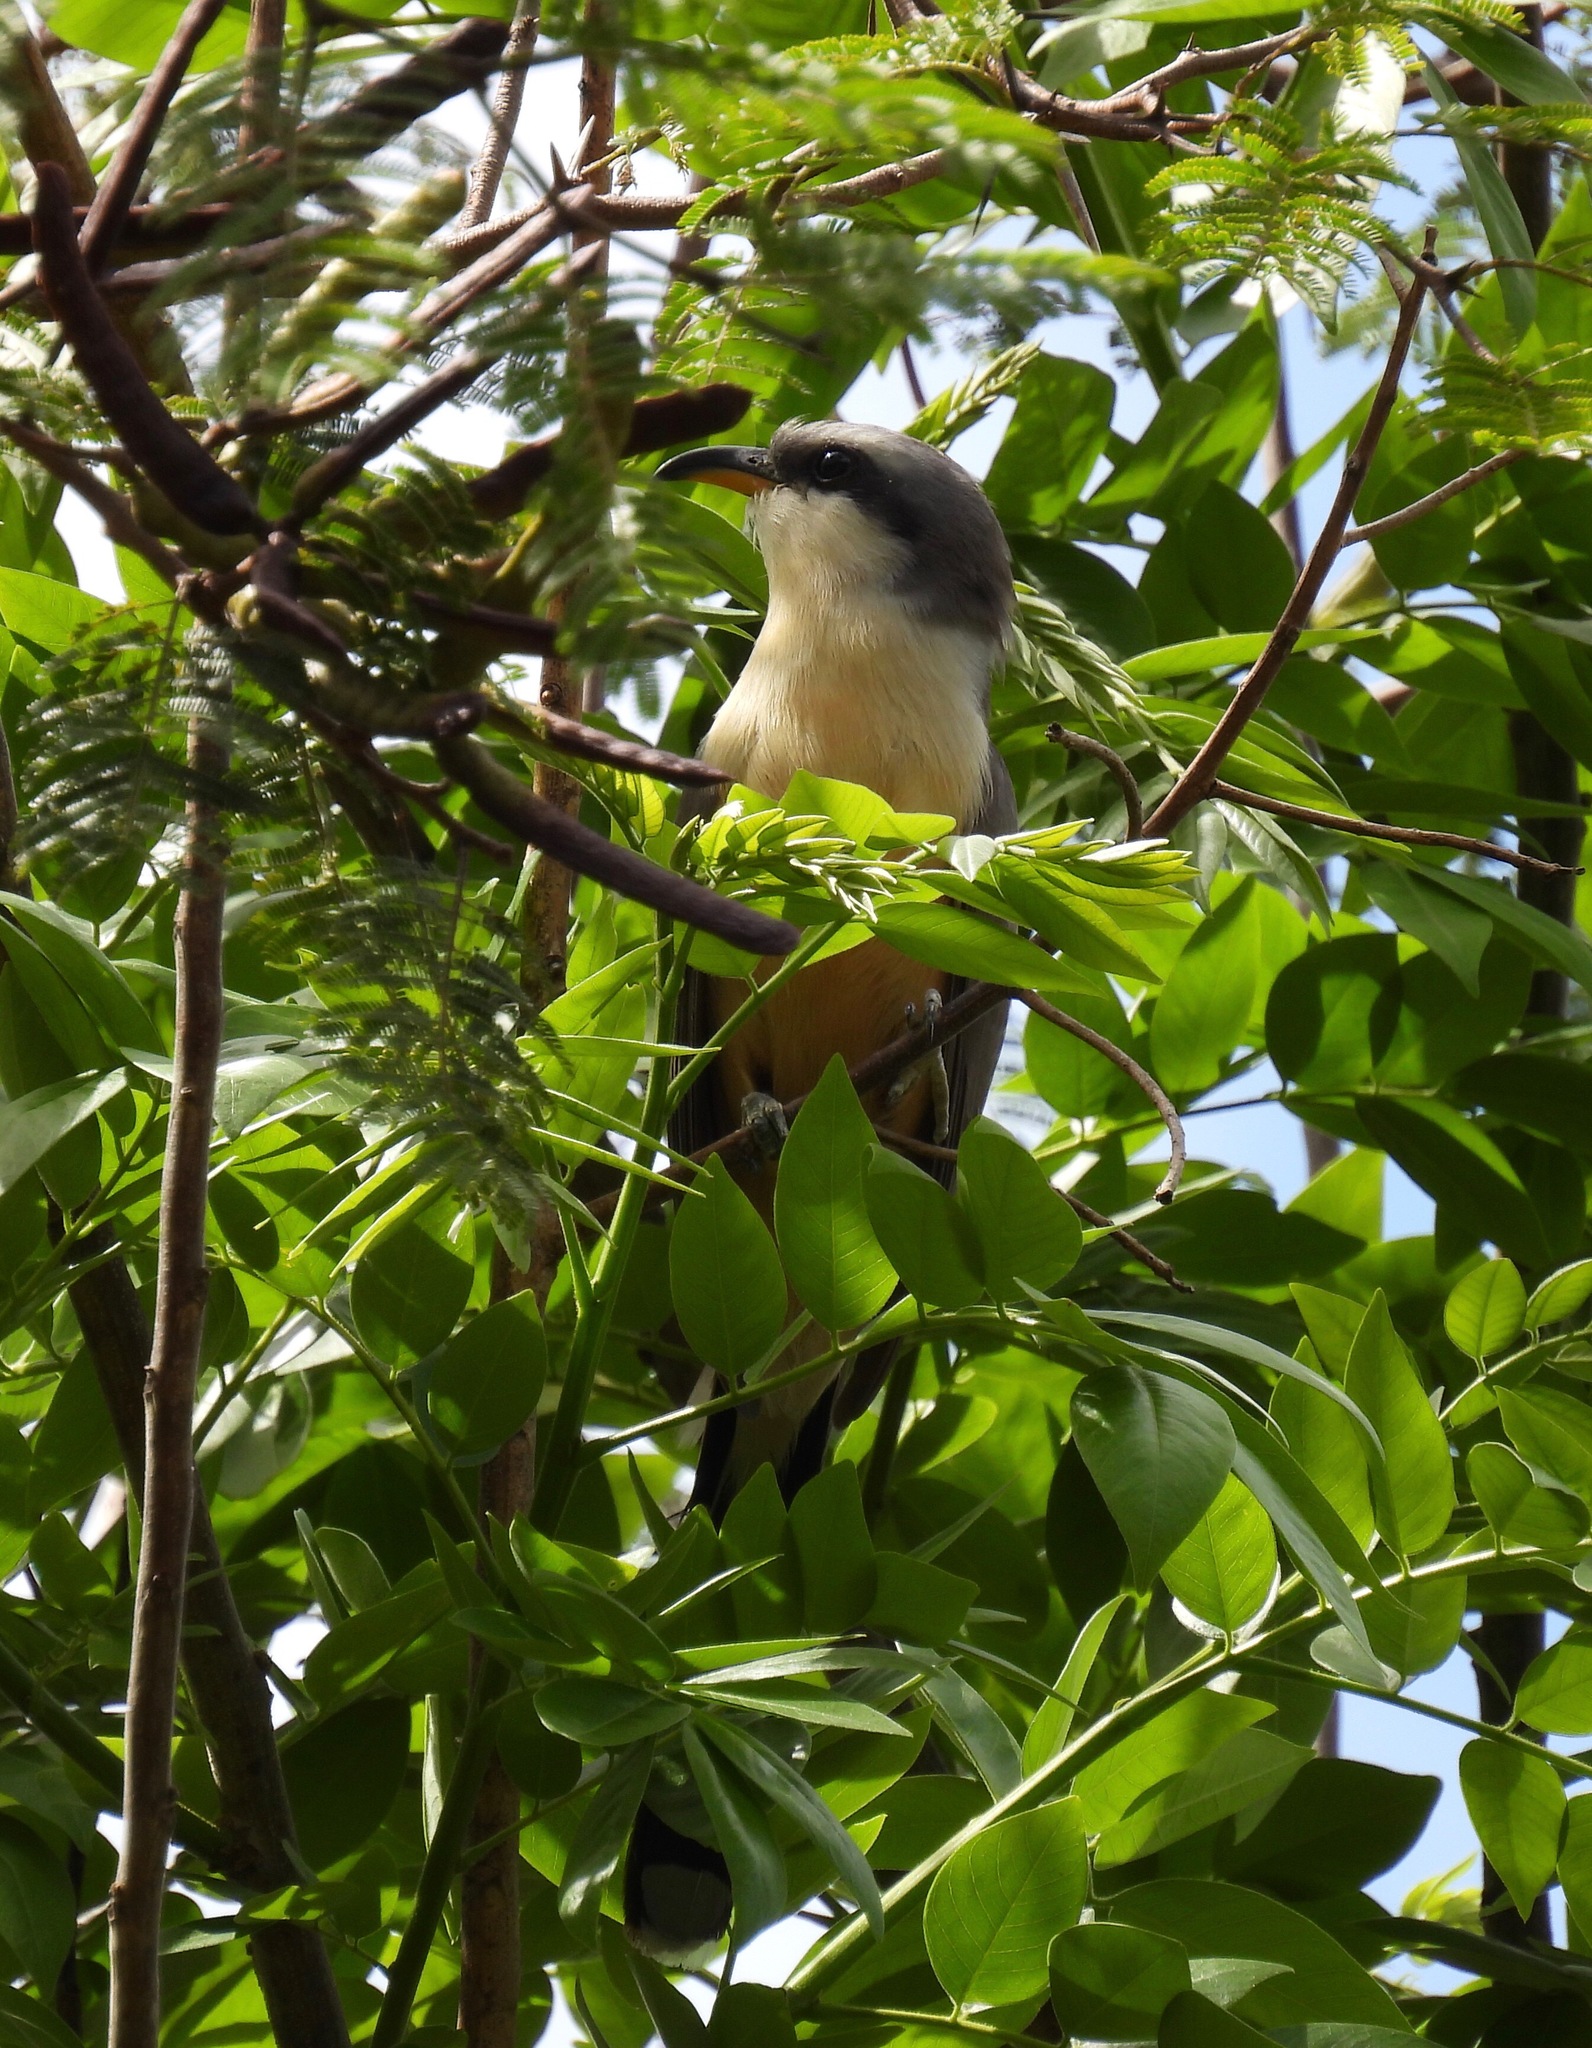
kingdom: Animalia
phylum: Chordata
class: Aves
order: Cuculiformes
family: Cuculidae
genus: Coccyzus
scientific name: Coccyzus minor
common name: Mangrove cuckoo
